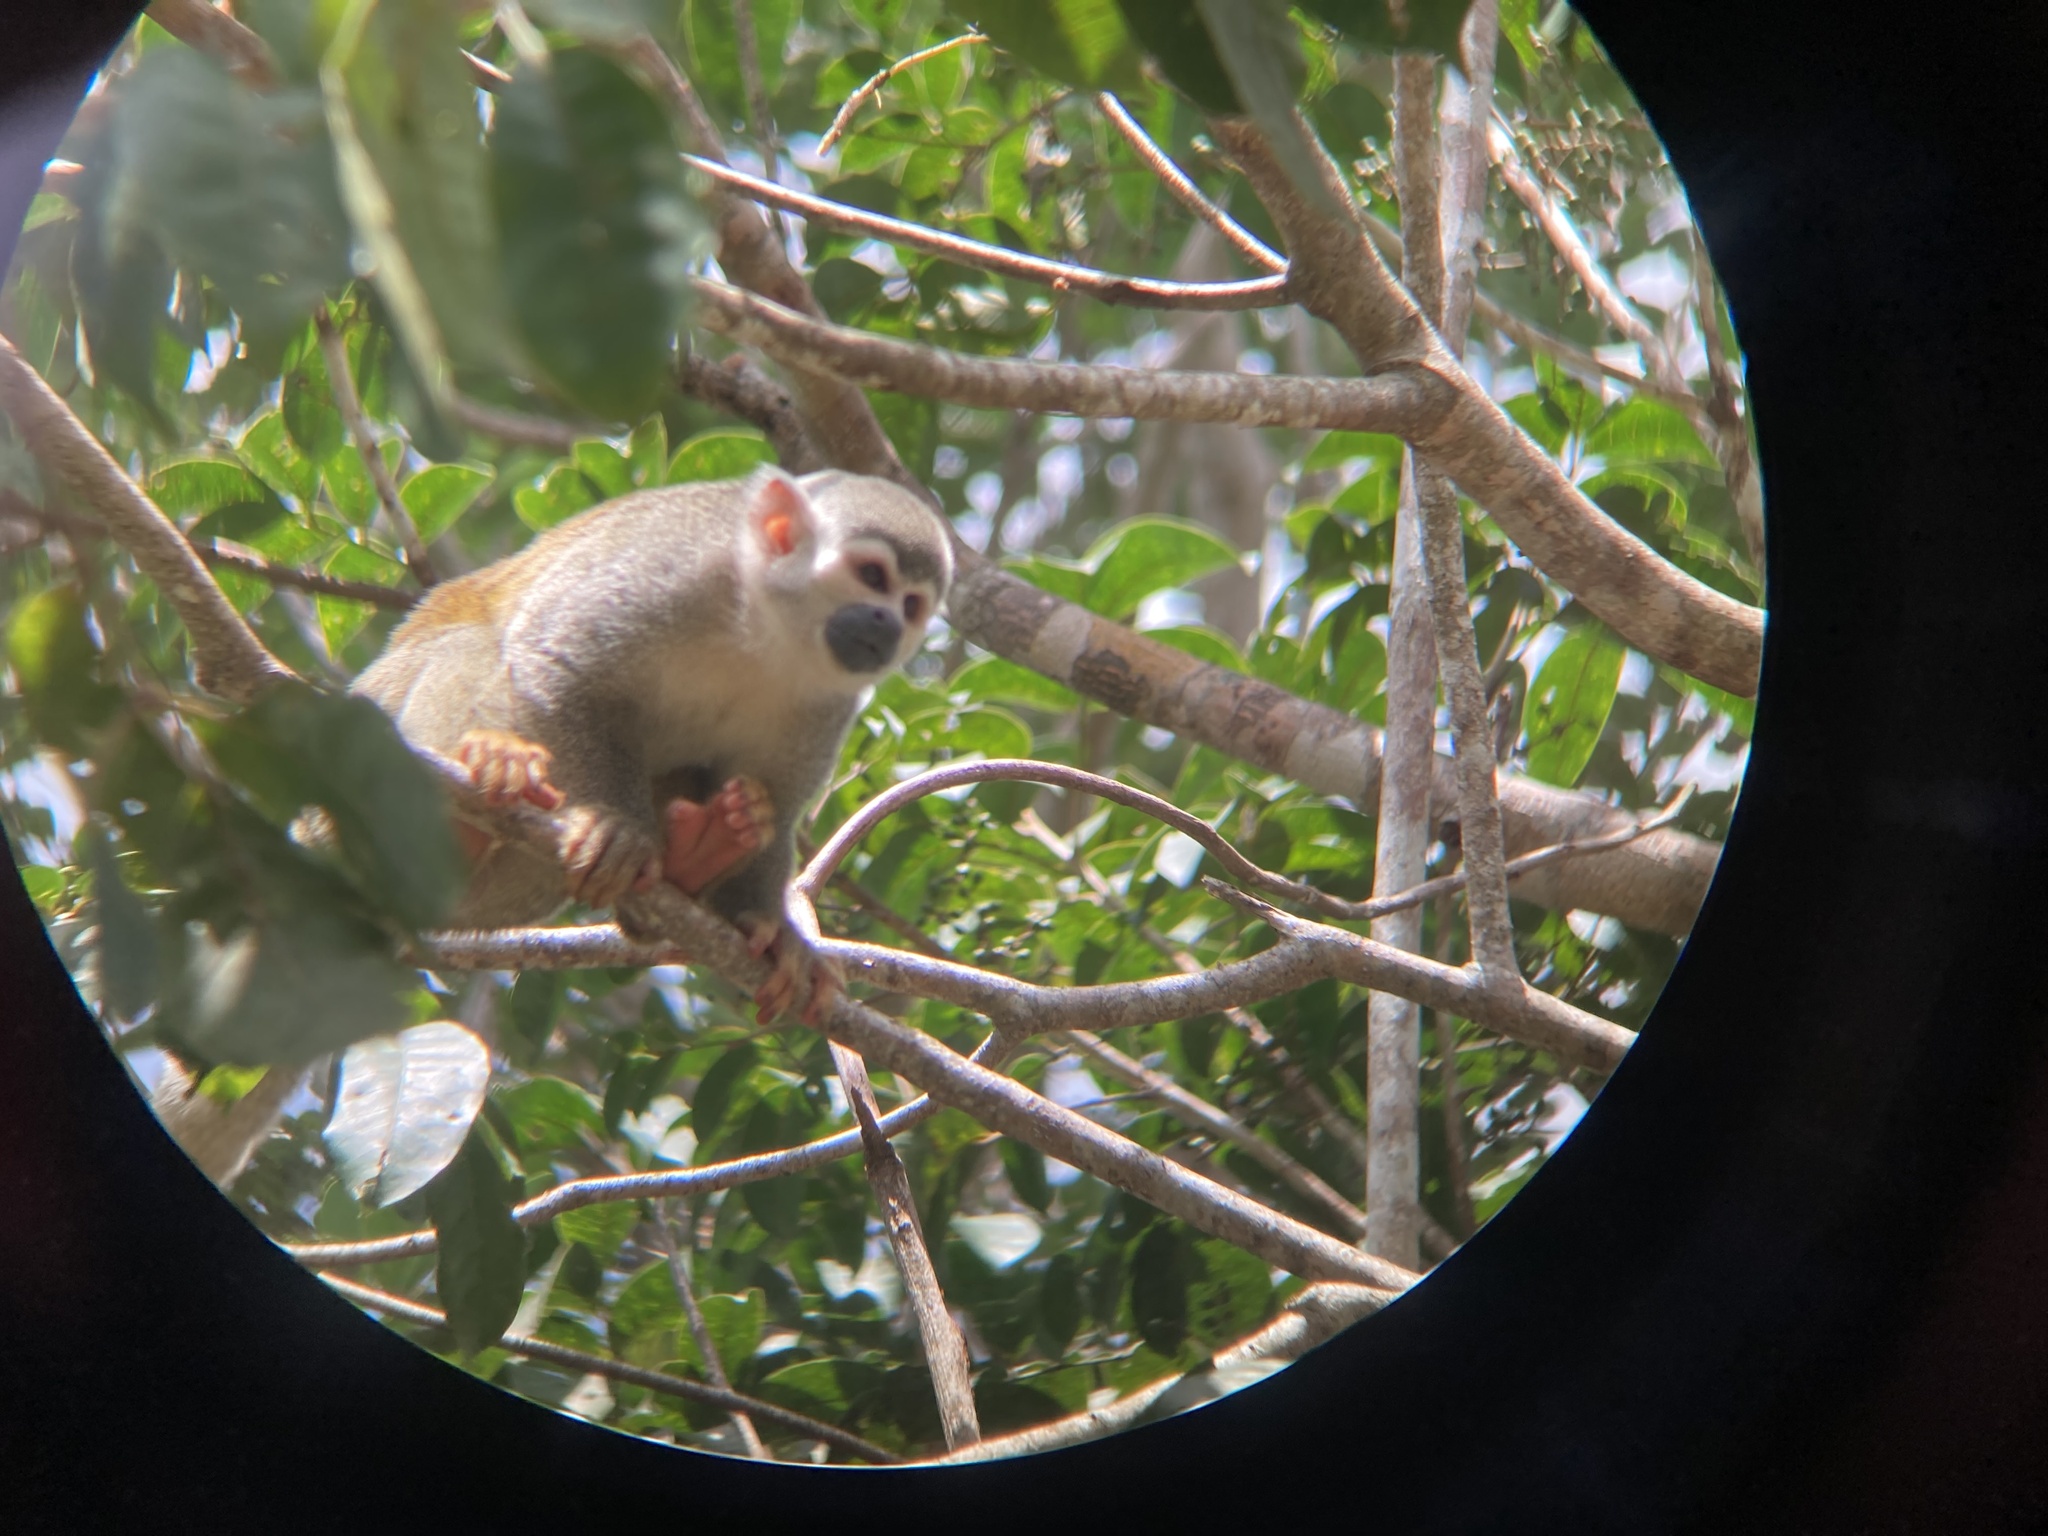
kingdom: Animalia
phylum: Chordata
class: Mammalia
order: Primates
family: Cebidae
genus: Saimiri
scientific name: Saimiri cassiquiarensis
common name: Humboldt’s squirrel monkey
